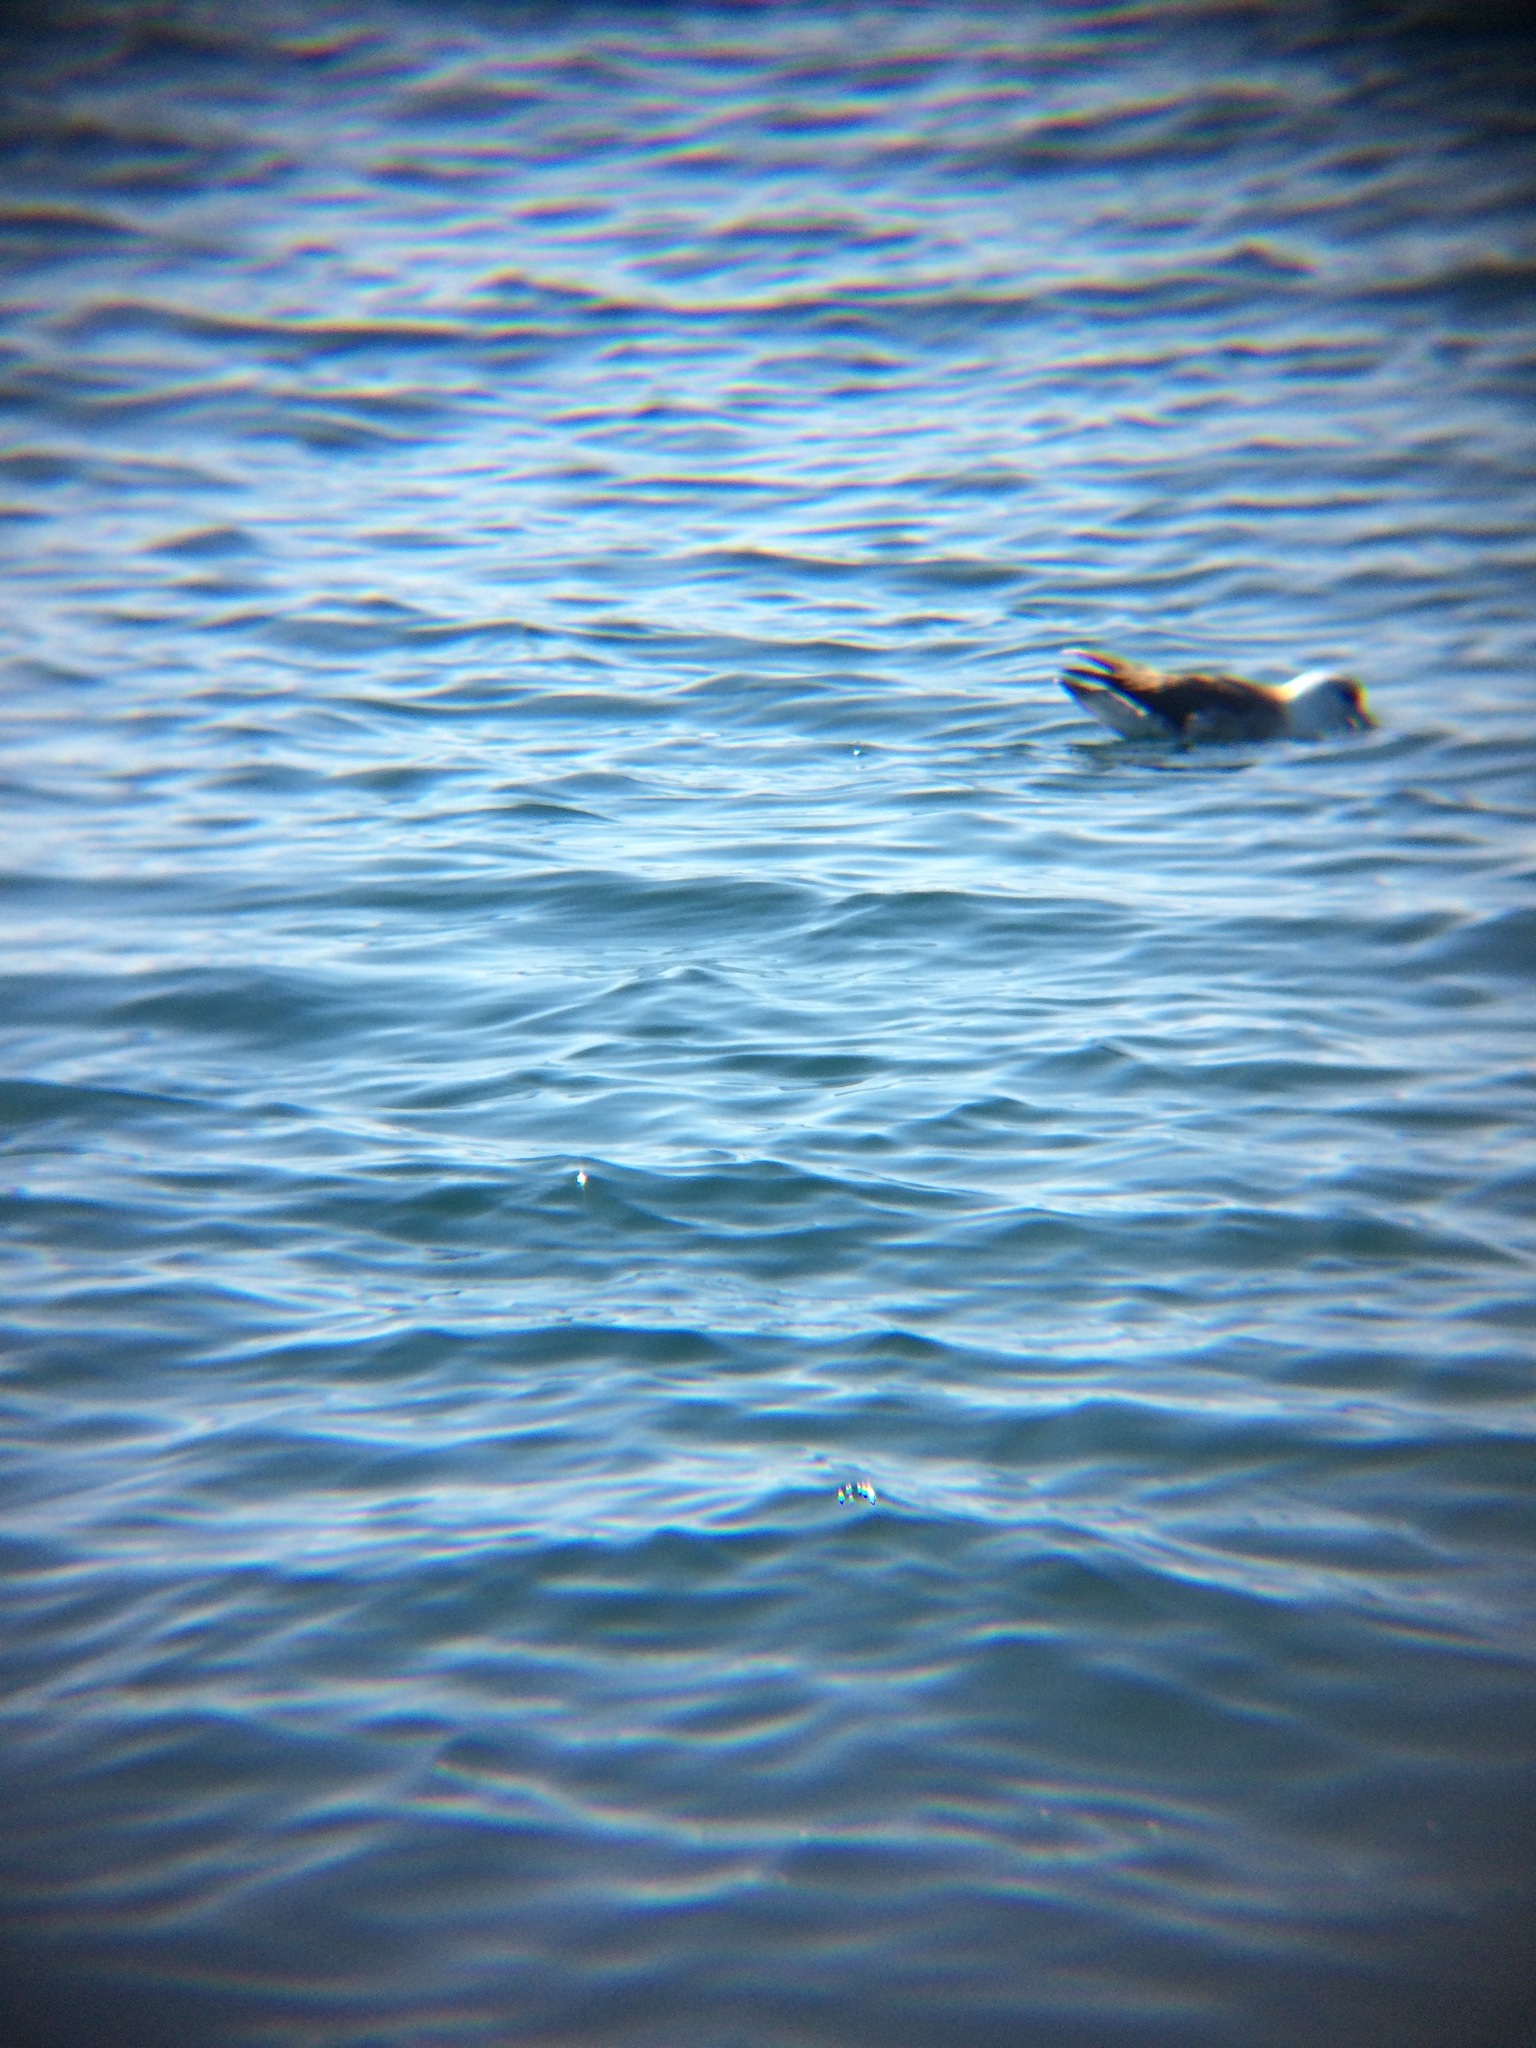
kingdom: Animalia
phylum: Chordata
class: Aves
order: Procellariiformes
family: Procellariidae
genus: Fulmarus
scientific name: Fulmarus glacialis
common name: Northern fulmar
